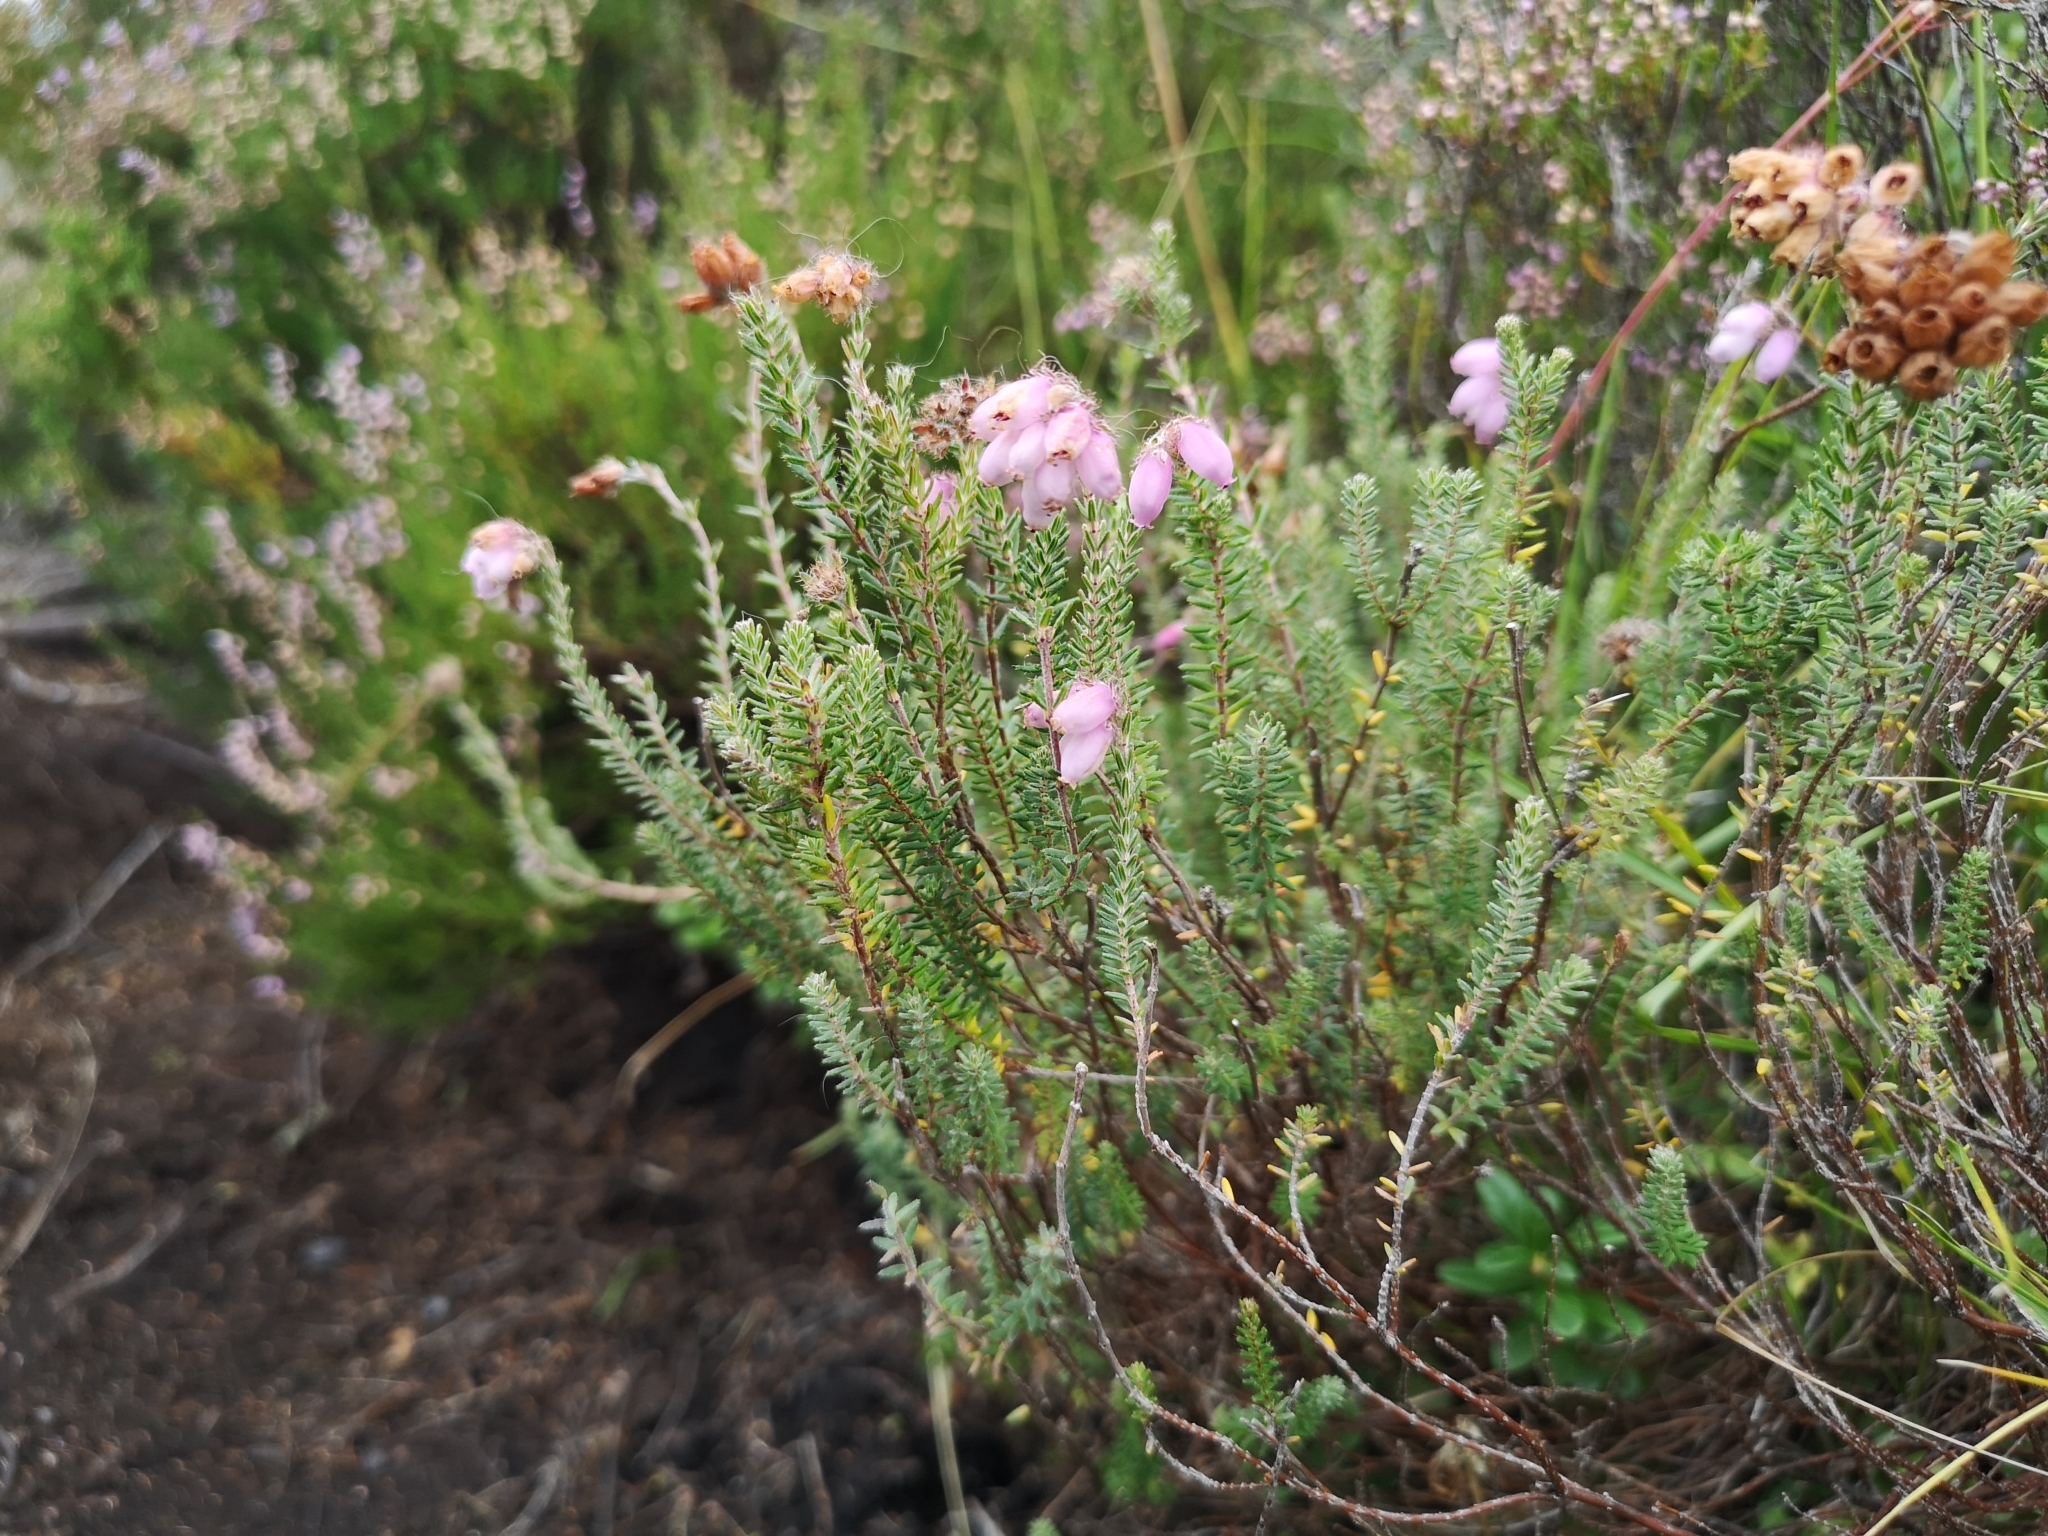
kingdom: Plantae
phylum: Tracheophyta
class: Magnoliopsida
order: Ericales
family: Ericaceae
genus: Erica
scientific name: Erica tetralix
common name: Cross-leaved heath
